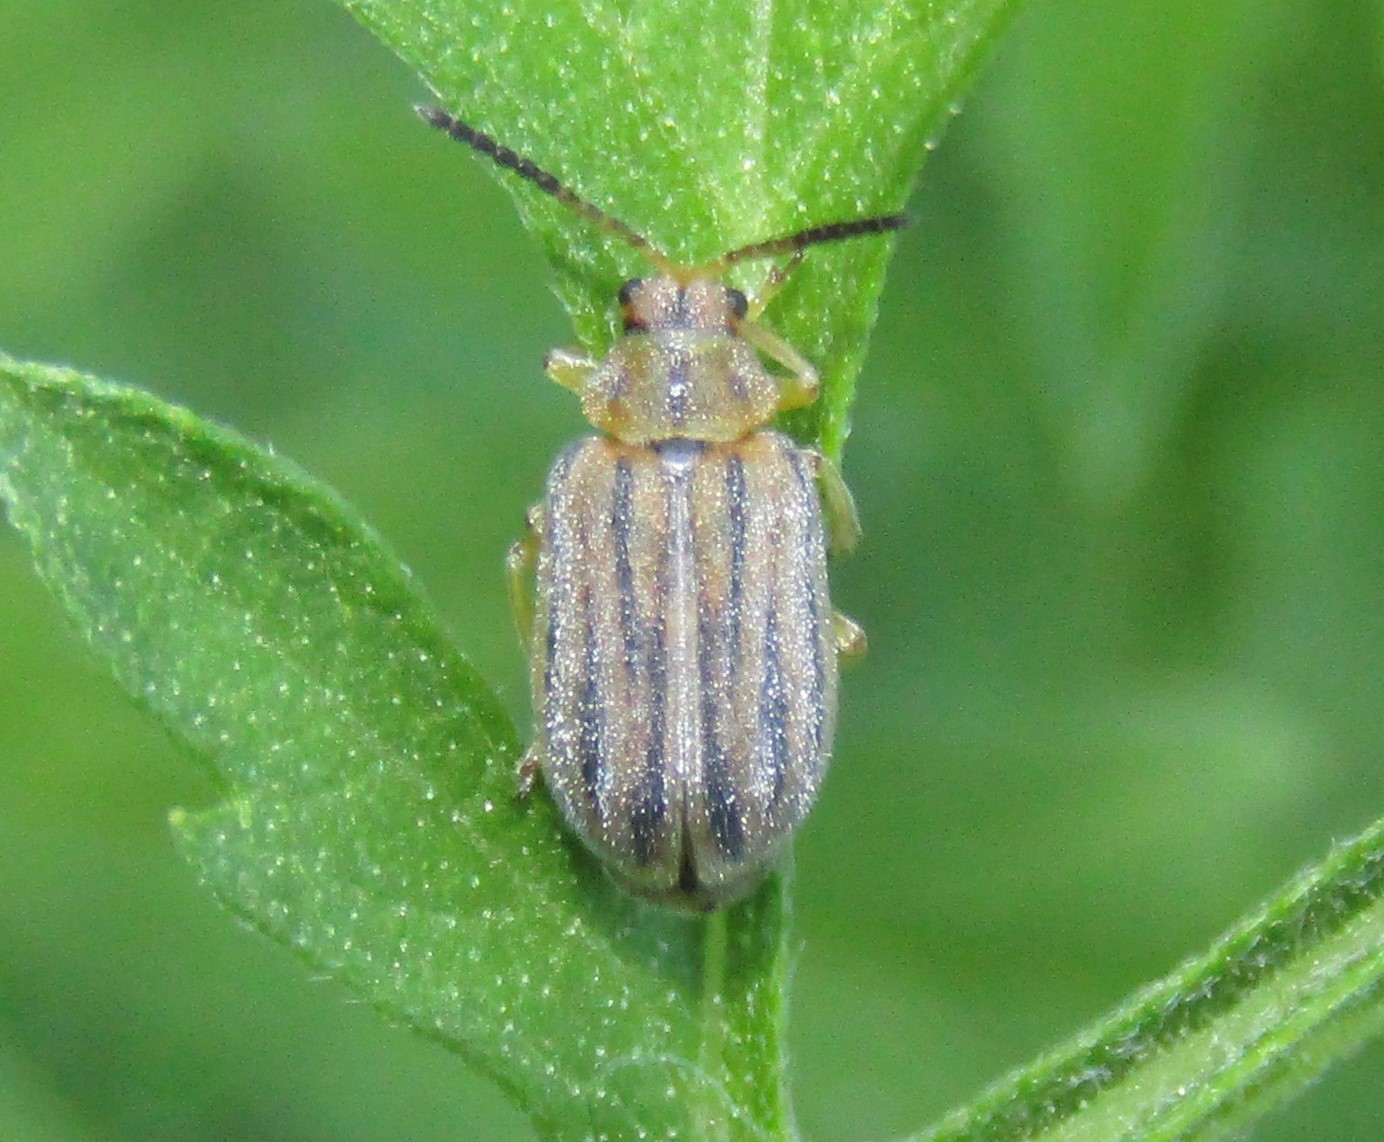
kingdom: Animalia
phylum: Arthropoda
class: Insecta
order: Coleoptera
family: Chrysomelidae
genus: Ophraella
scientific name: Ophraella communa
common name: Ragweed leaf beetle
